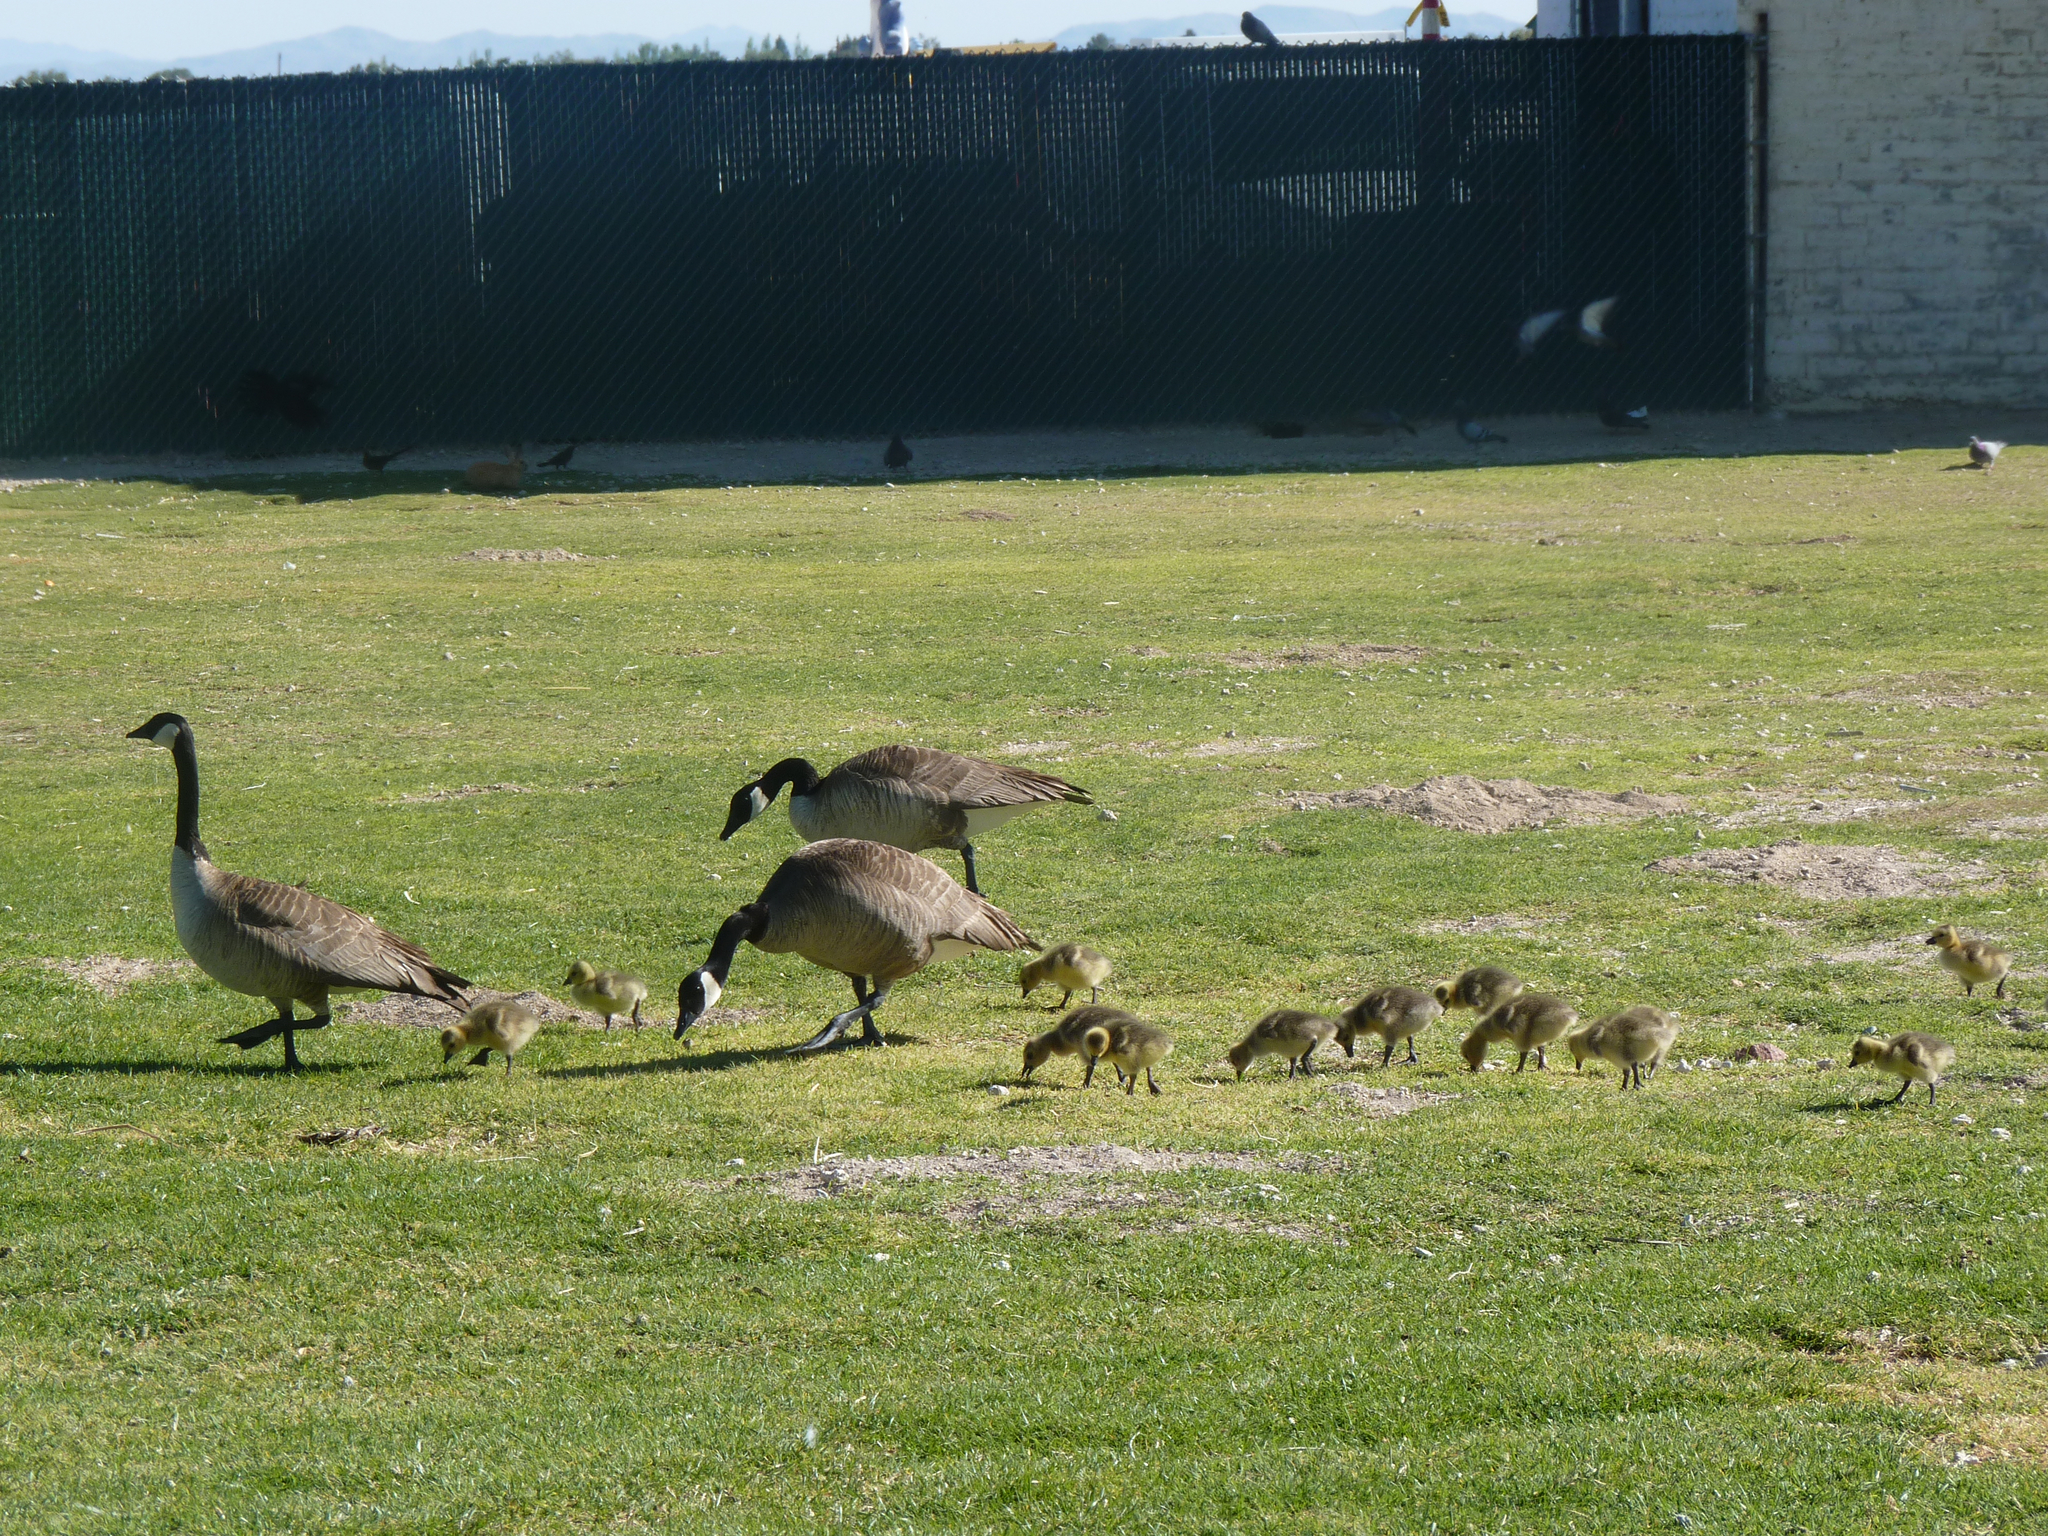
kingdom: Animalia
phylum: Chordata
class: Aves
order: Anseriformes
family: Anatidae
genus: Branta
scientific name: Branta canadensis
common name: Canada goose
